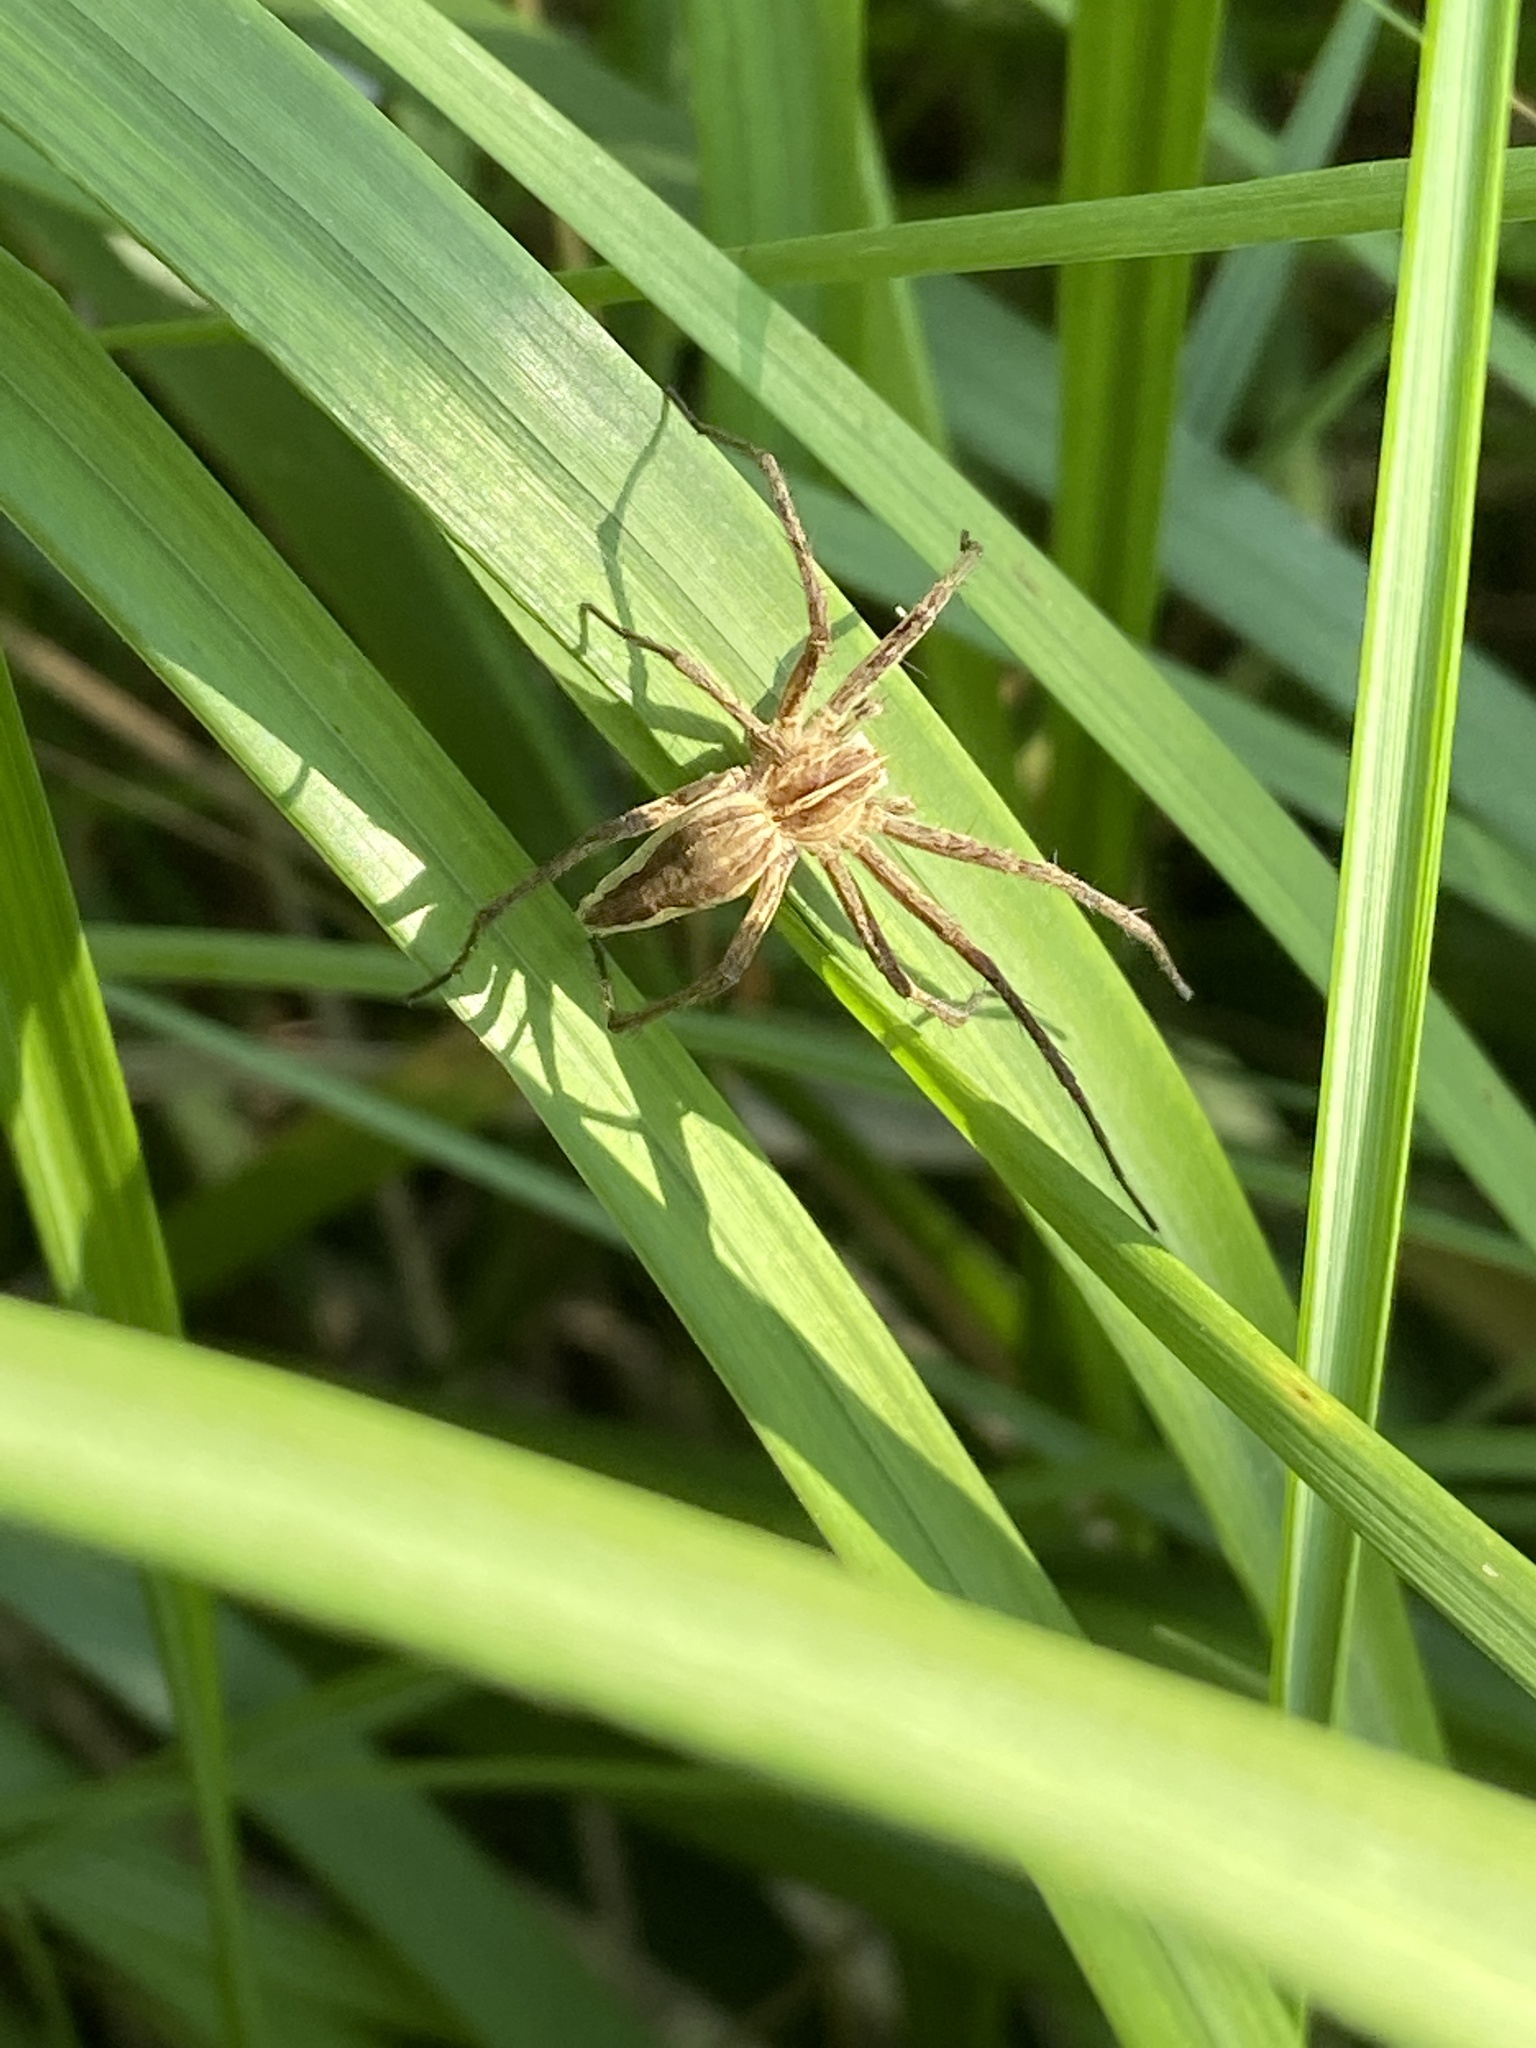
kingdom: Animalia
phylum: Arthropoda
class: Arachnida
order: Araneae
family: Pisauridae
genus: Pisaura
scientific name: Pisaura mirabilis
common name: Tent spider
